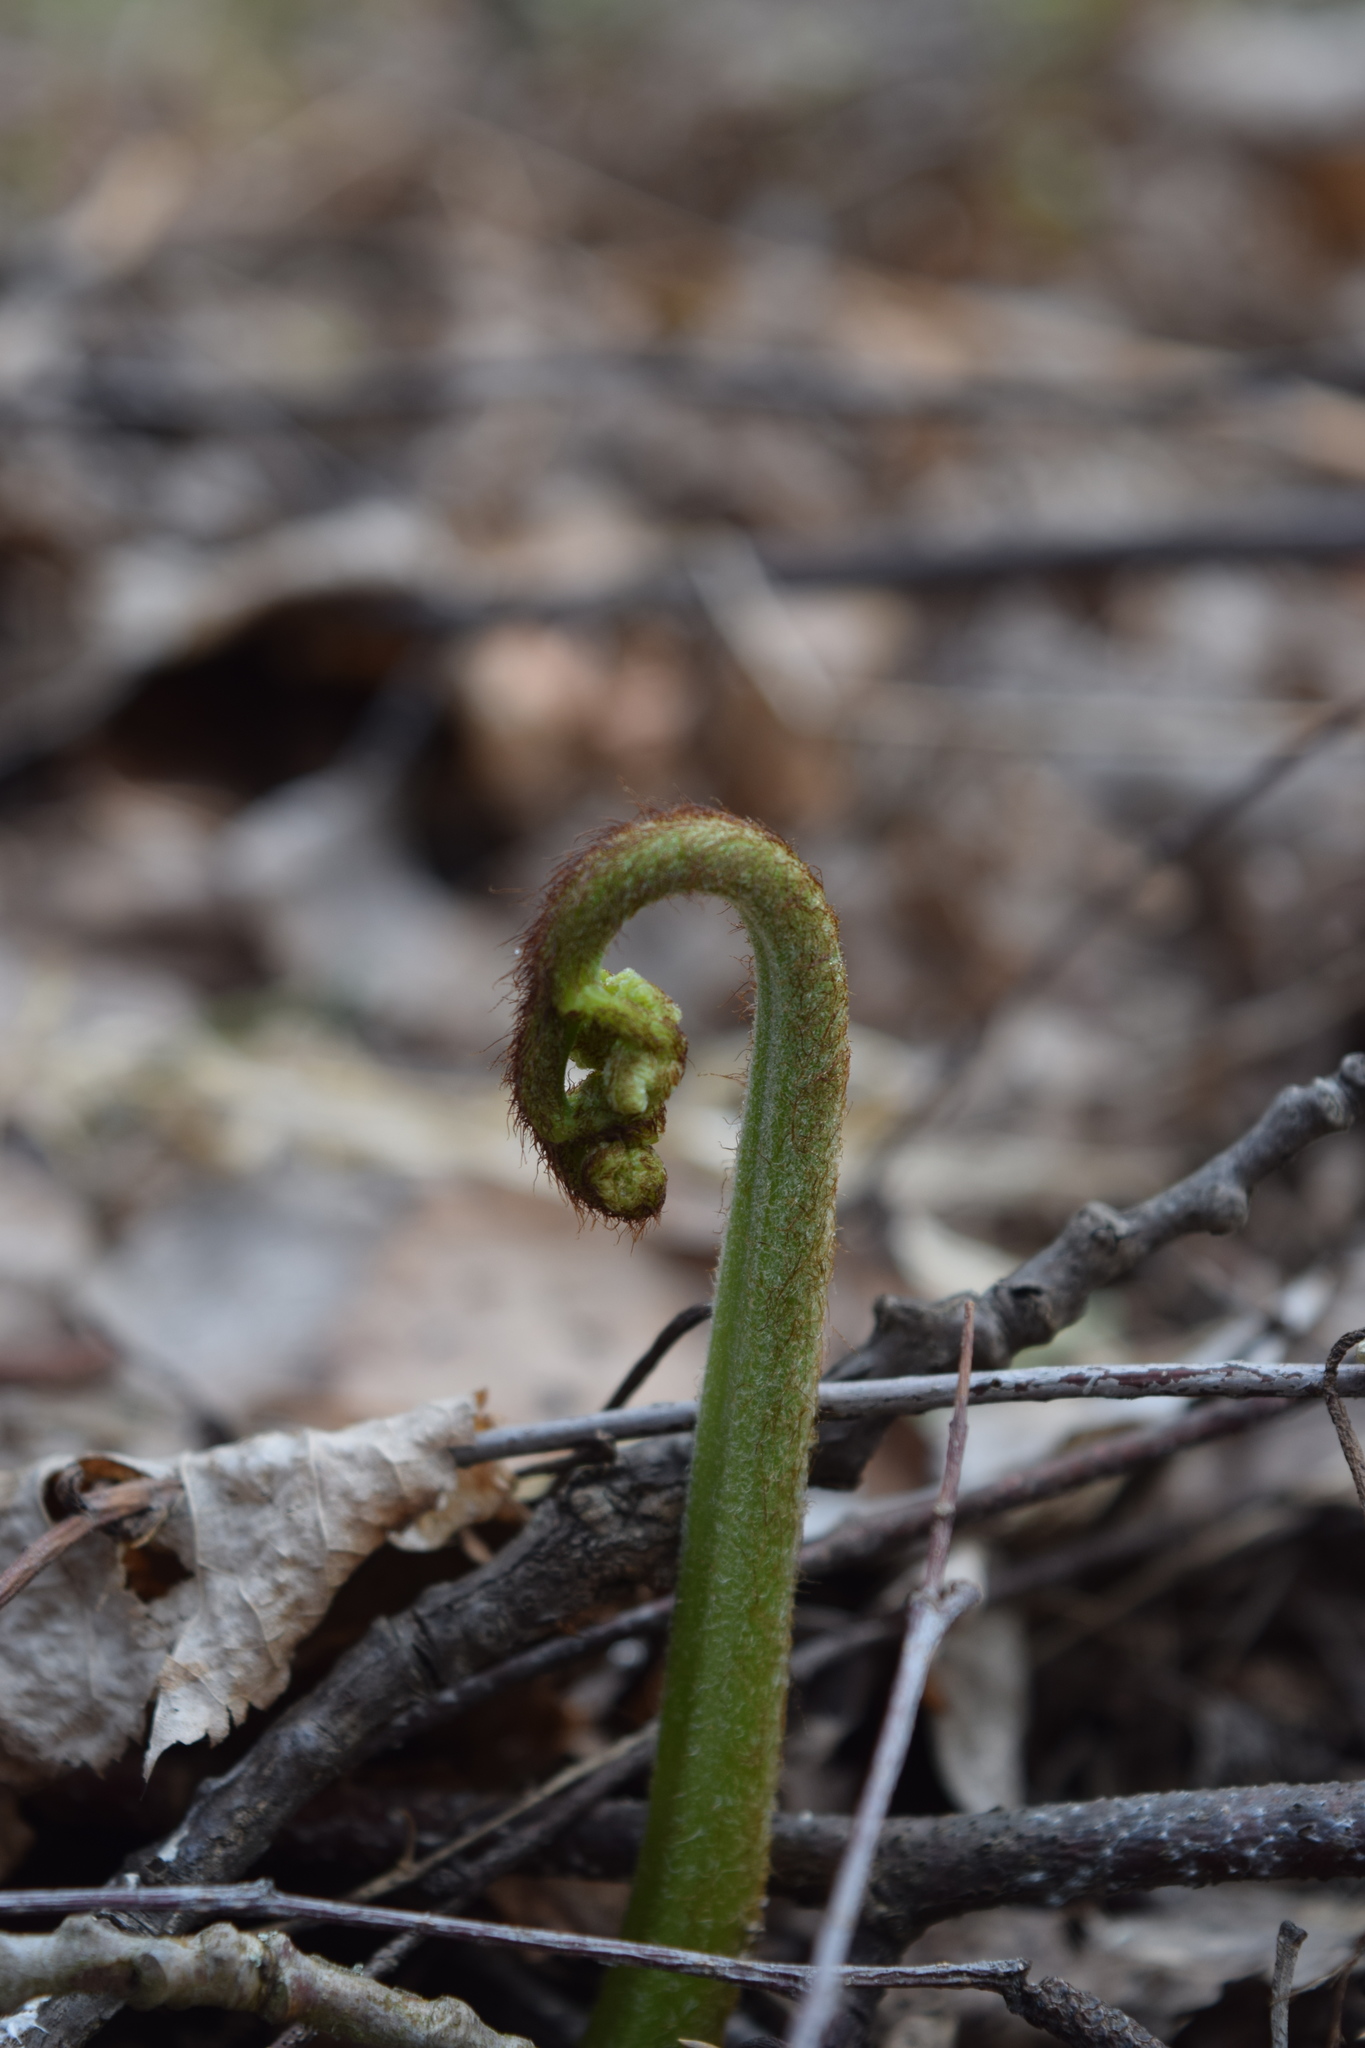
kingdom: Plantae
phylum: Tracheophyta
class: Polypodiopsida
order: Polypodiales
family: Dennstaedtiaceae
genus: Pteridium
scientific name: Pteridium aquilinum
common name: Bracken
